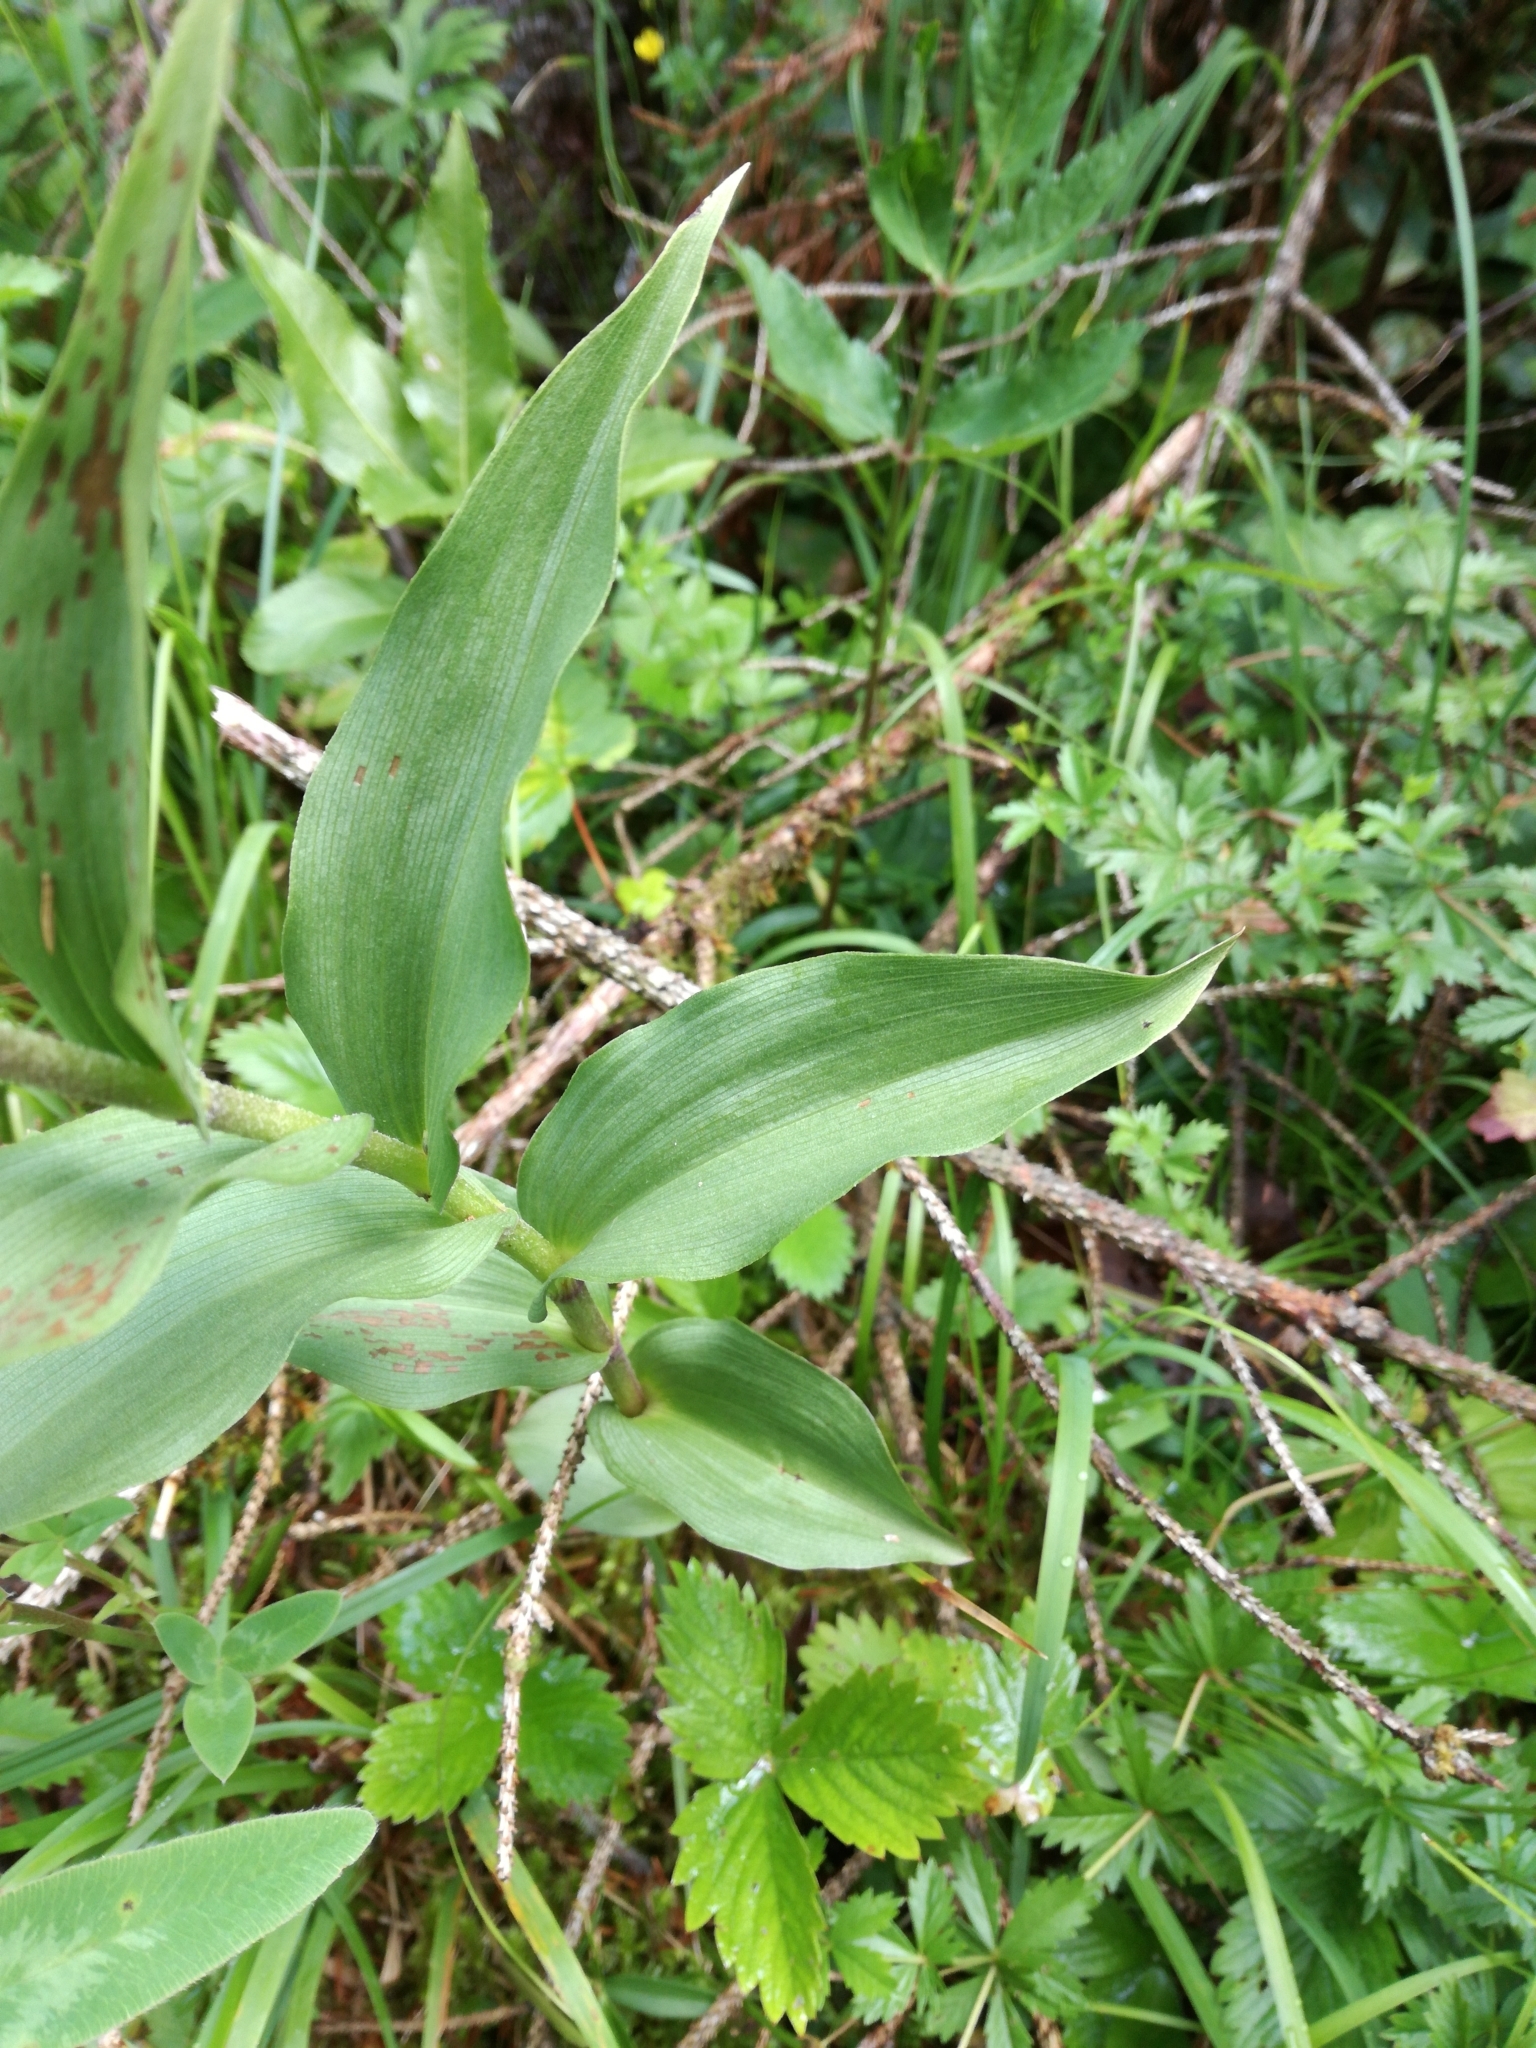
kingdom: Plantae
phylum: Tracheophyta
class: Liliopsida
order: Asparagales
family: Orchidaceae
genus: Epipactis
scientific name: Epipactis atrorubens
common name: Dark-red helleborine
